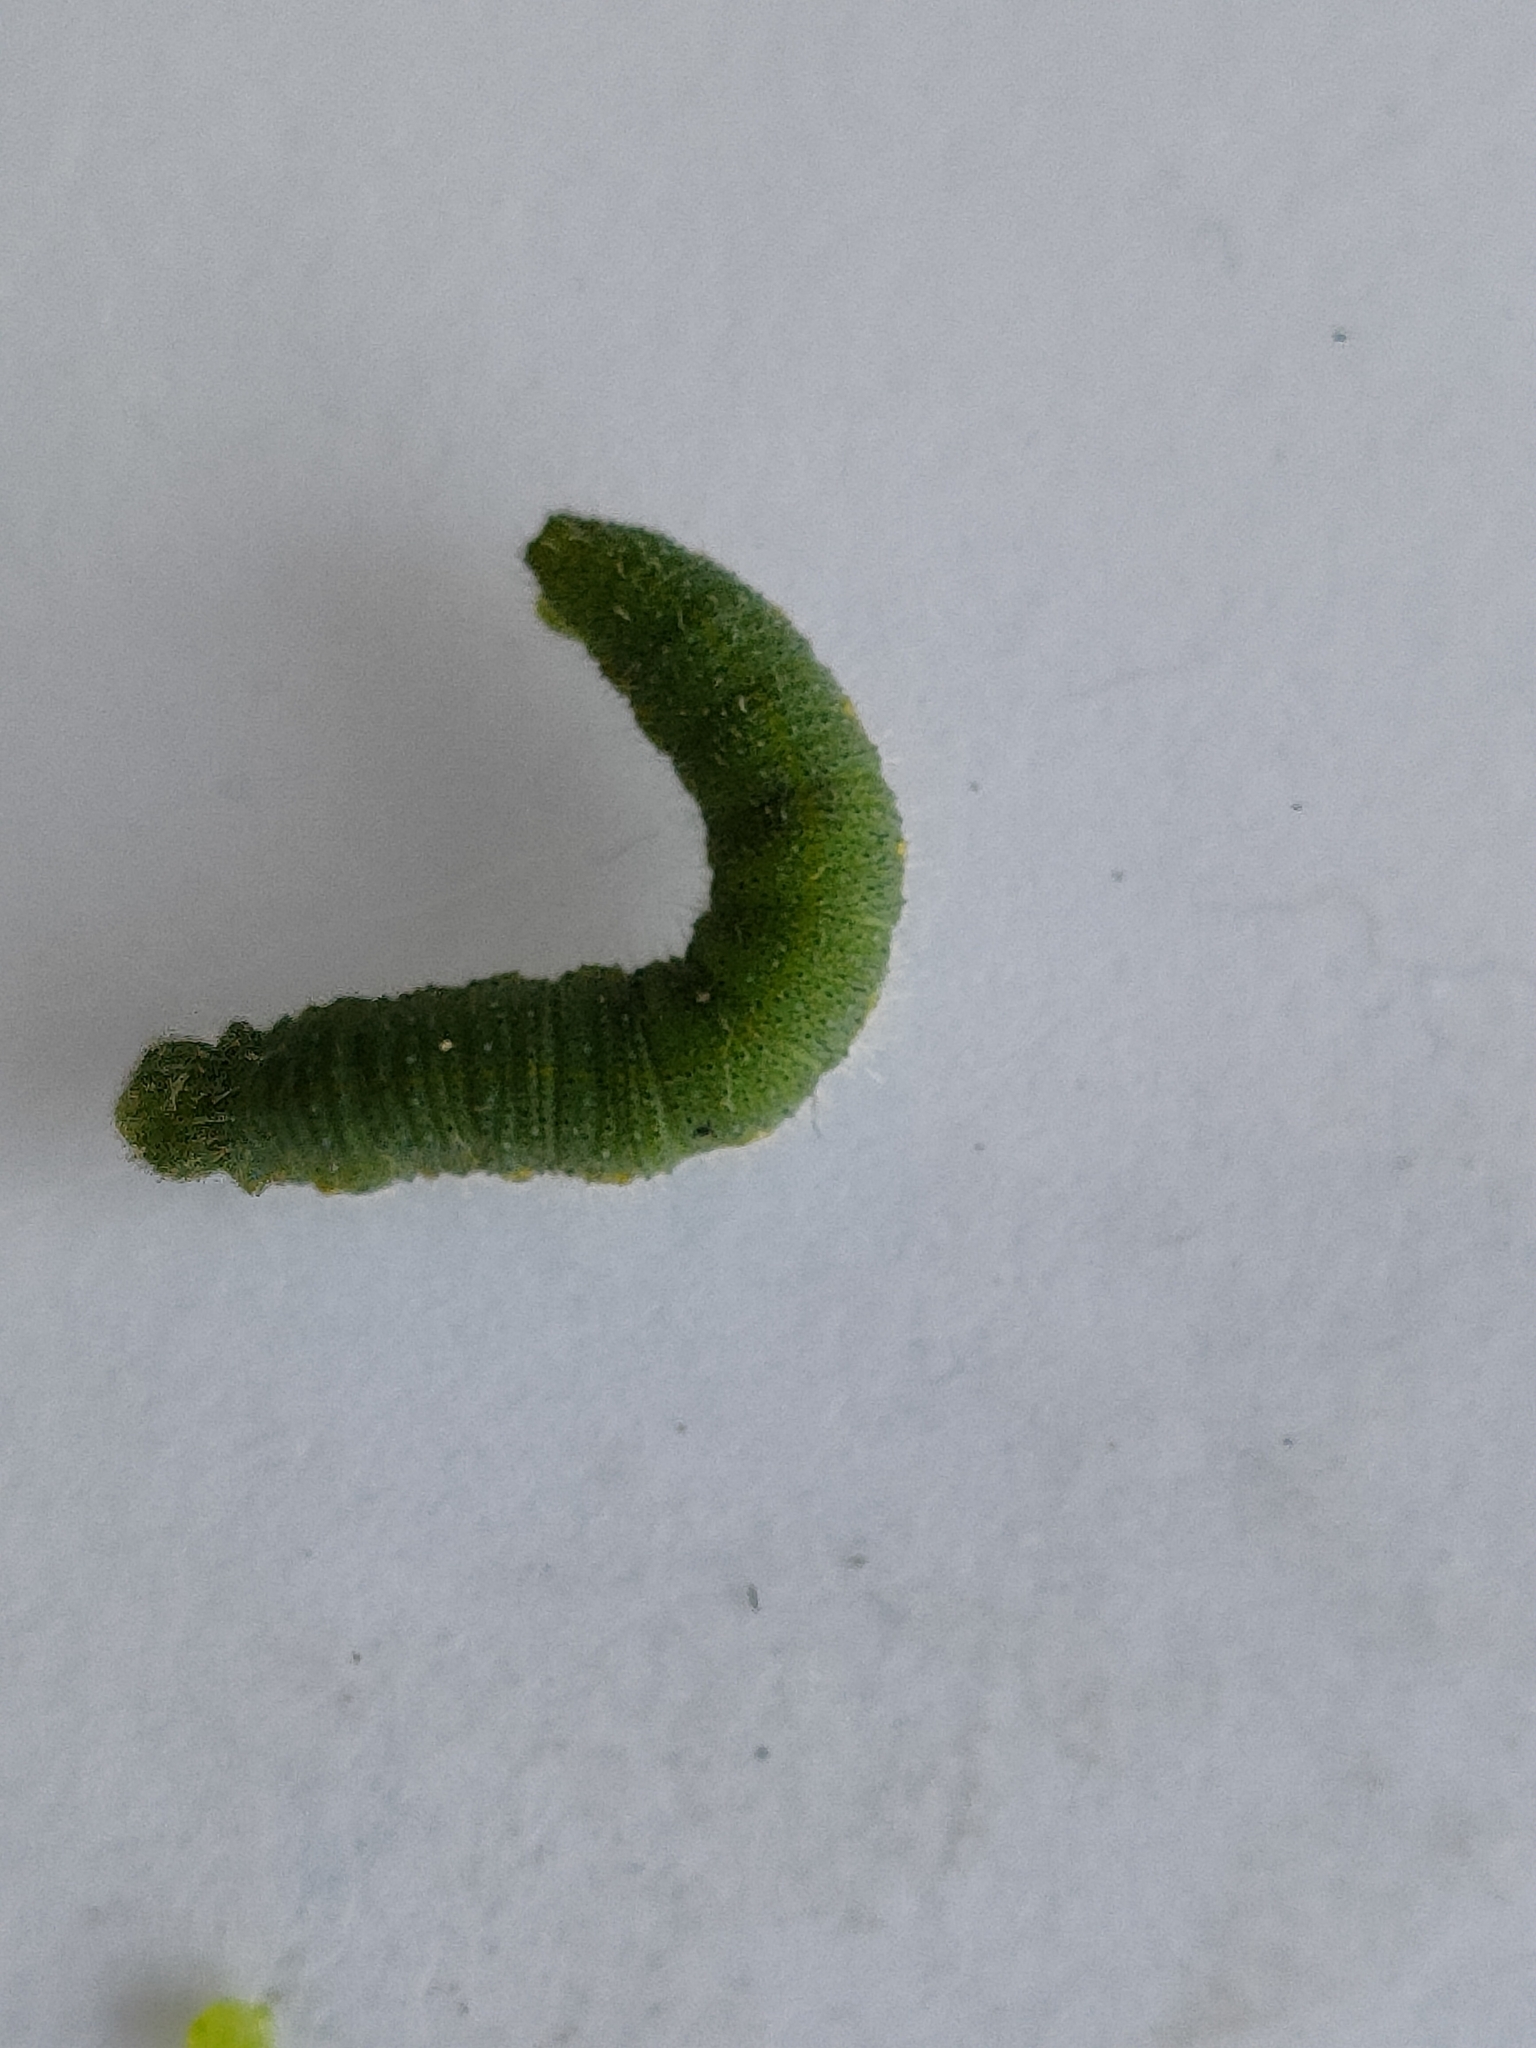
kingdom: Animalia
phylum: Arthropoda
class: Insecta
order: Lepidoptera
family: Pieridae
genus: Pieris
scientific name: Pieris rapae
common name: Small white
